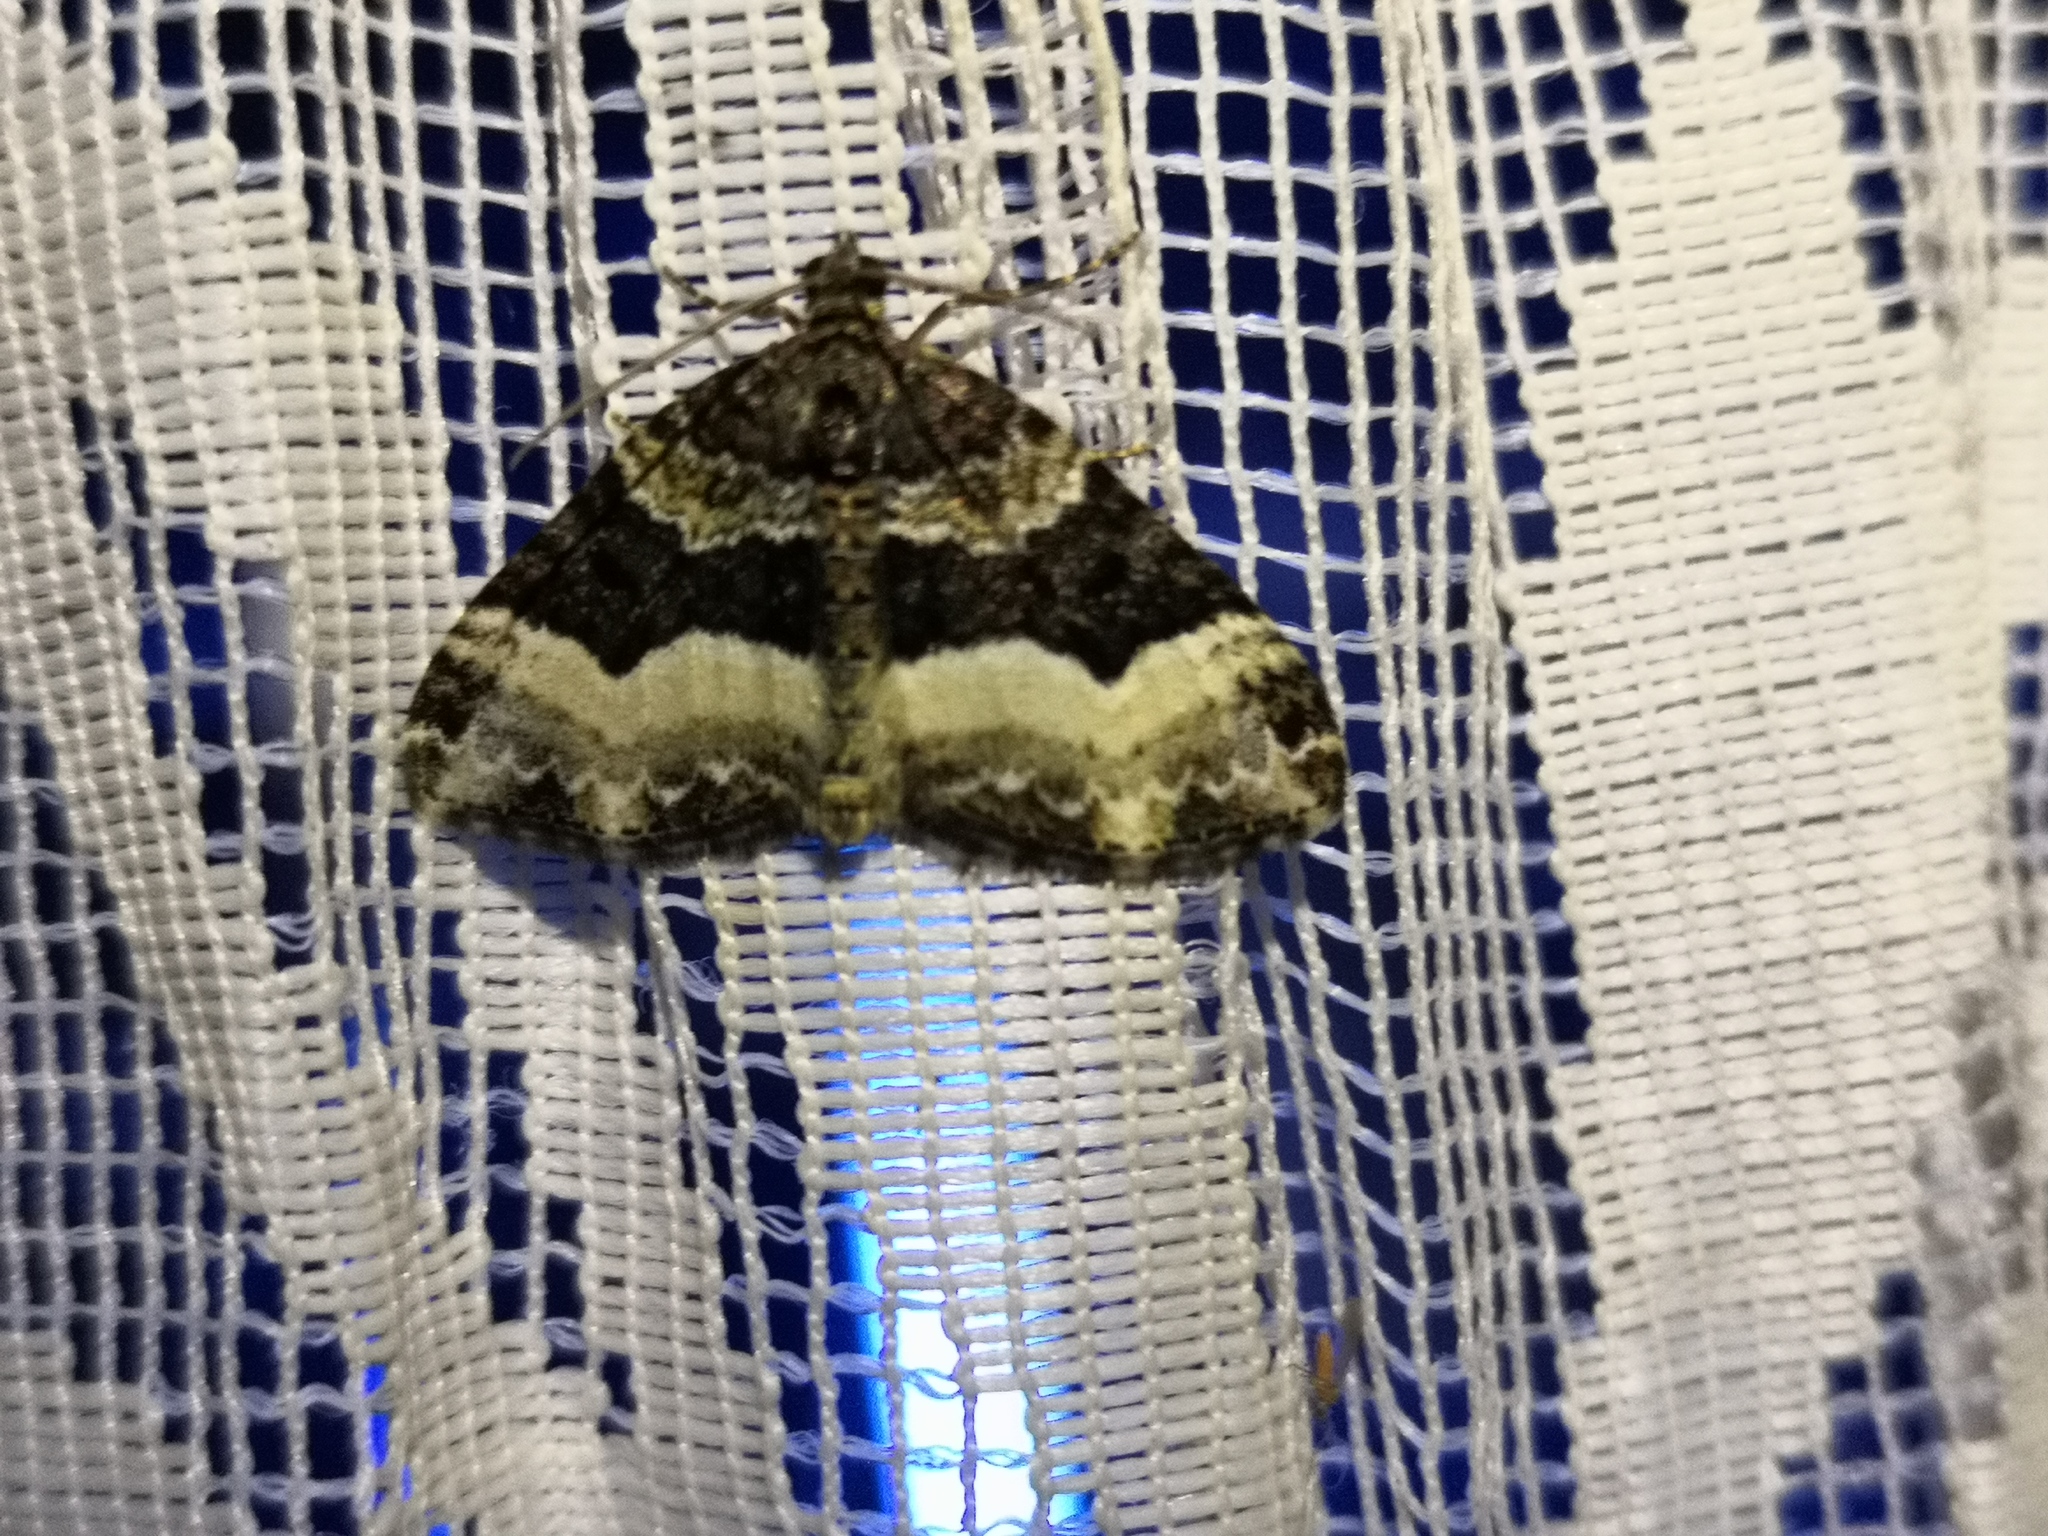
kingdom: Animalia
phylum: Arthropoda
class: Insecta
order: Lepidoptera
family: Geometridae
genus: Euphyia
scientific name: Euphyia unangulata
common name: Sharp-angled carpet
